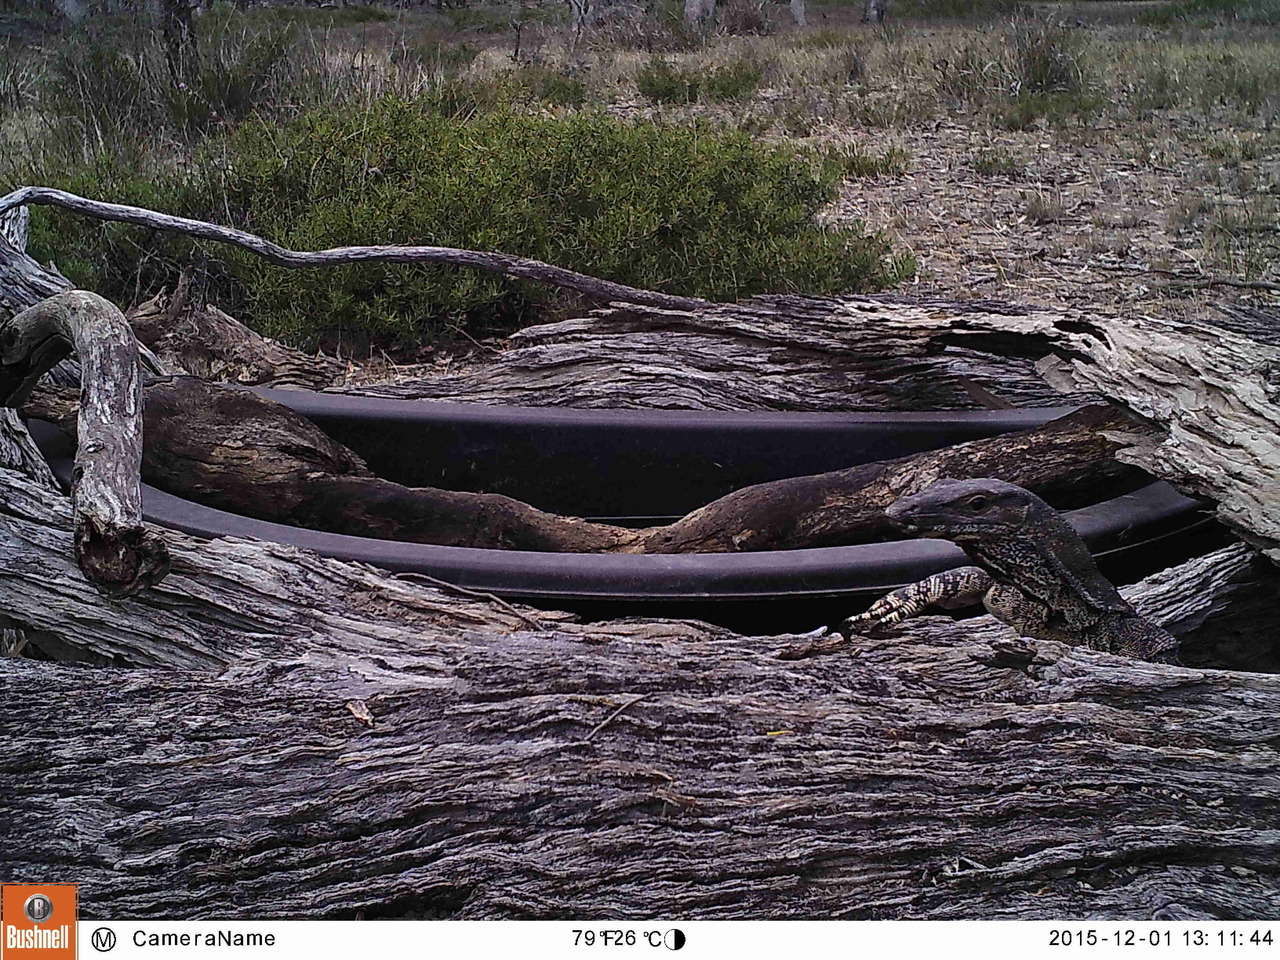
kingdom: Animalia
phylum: Chordata
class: Squamata
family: Varanidae
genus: Varanus
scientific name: Varanus varius
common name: Lace monitor
